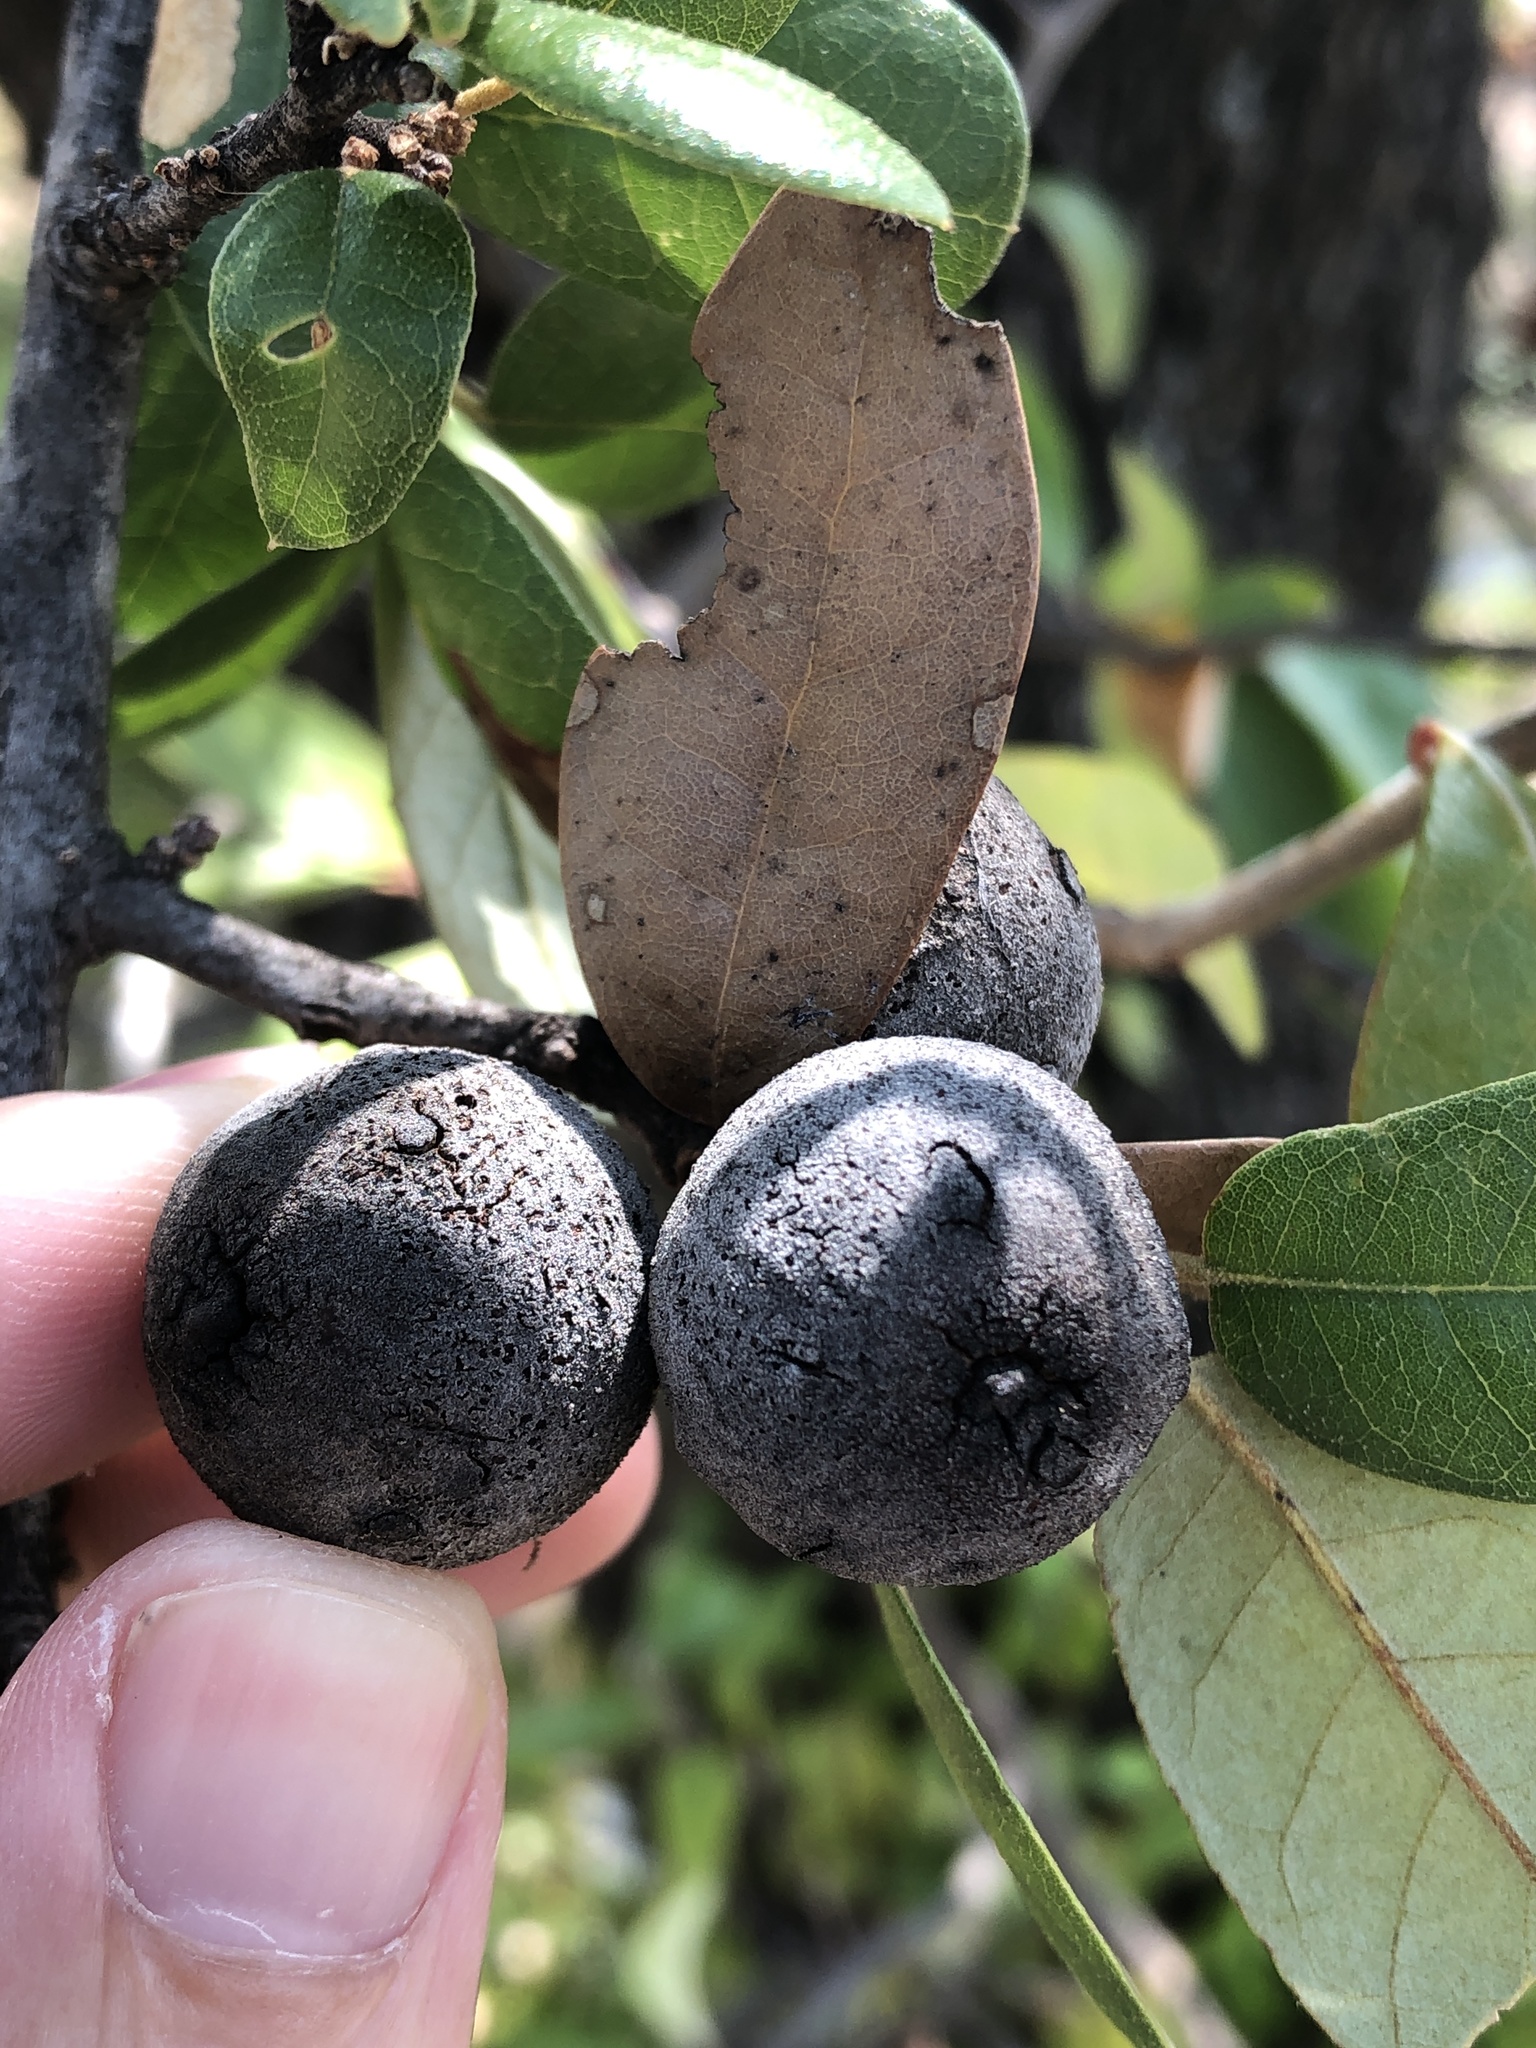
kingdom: Animalia
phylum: Arthropoda
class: Insecta
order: Hymenoptera
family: Cynipidae
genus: Disholcaspis
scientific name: Disholcaspis
